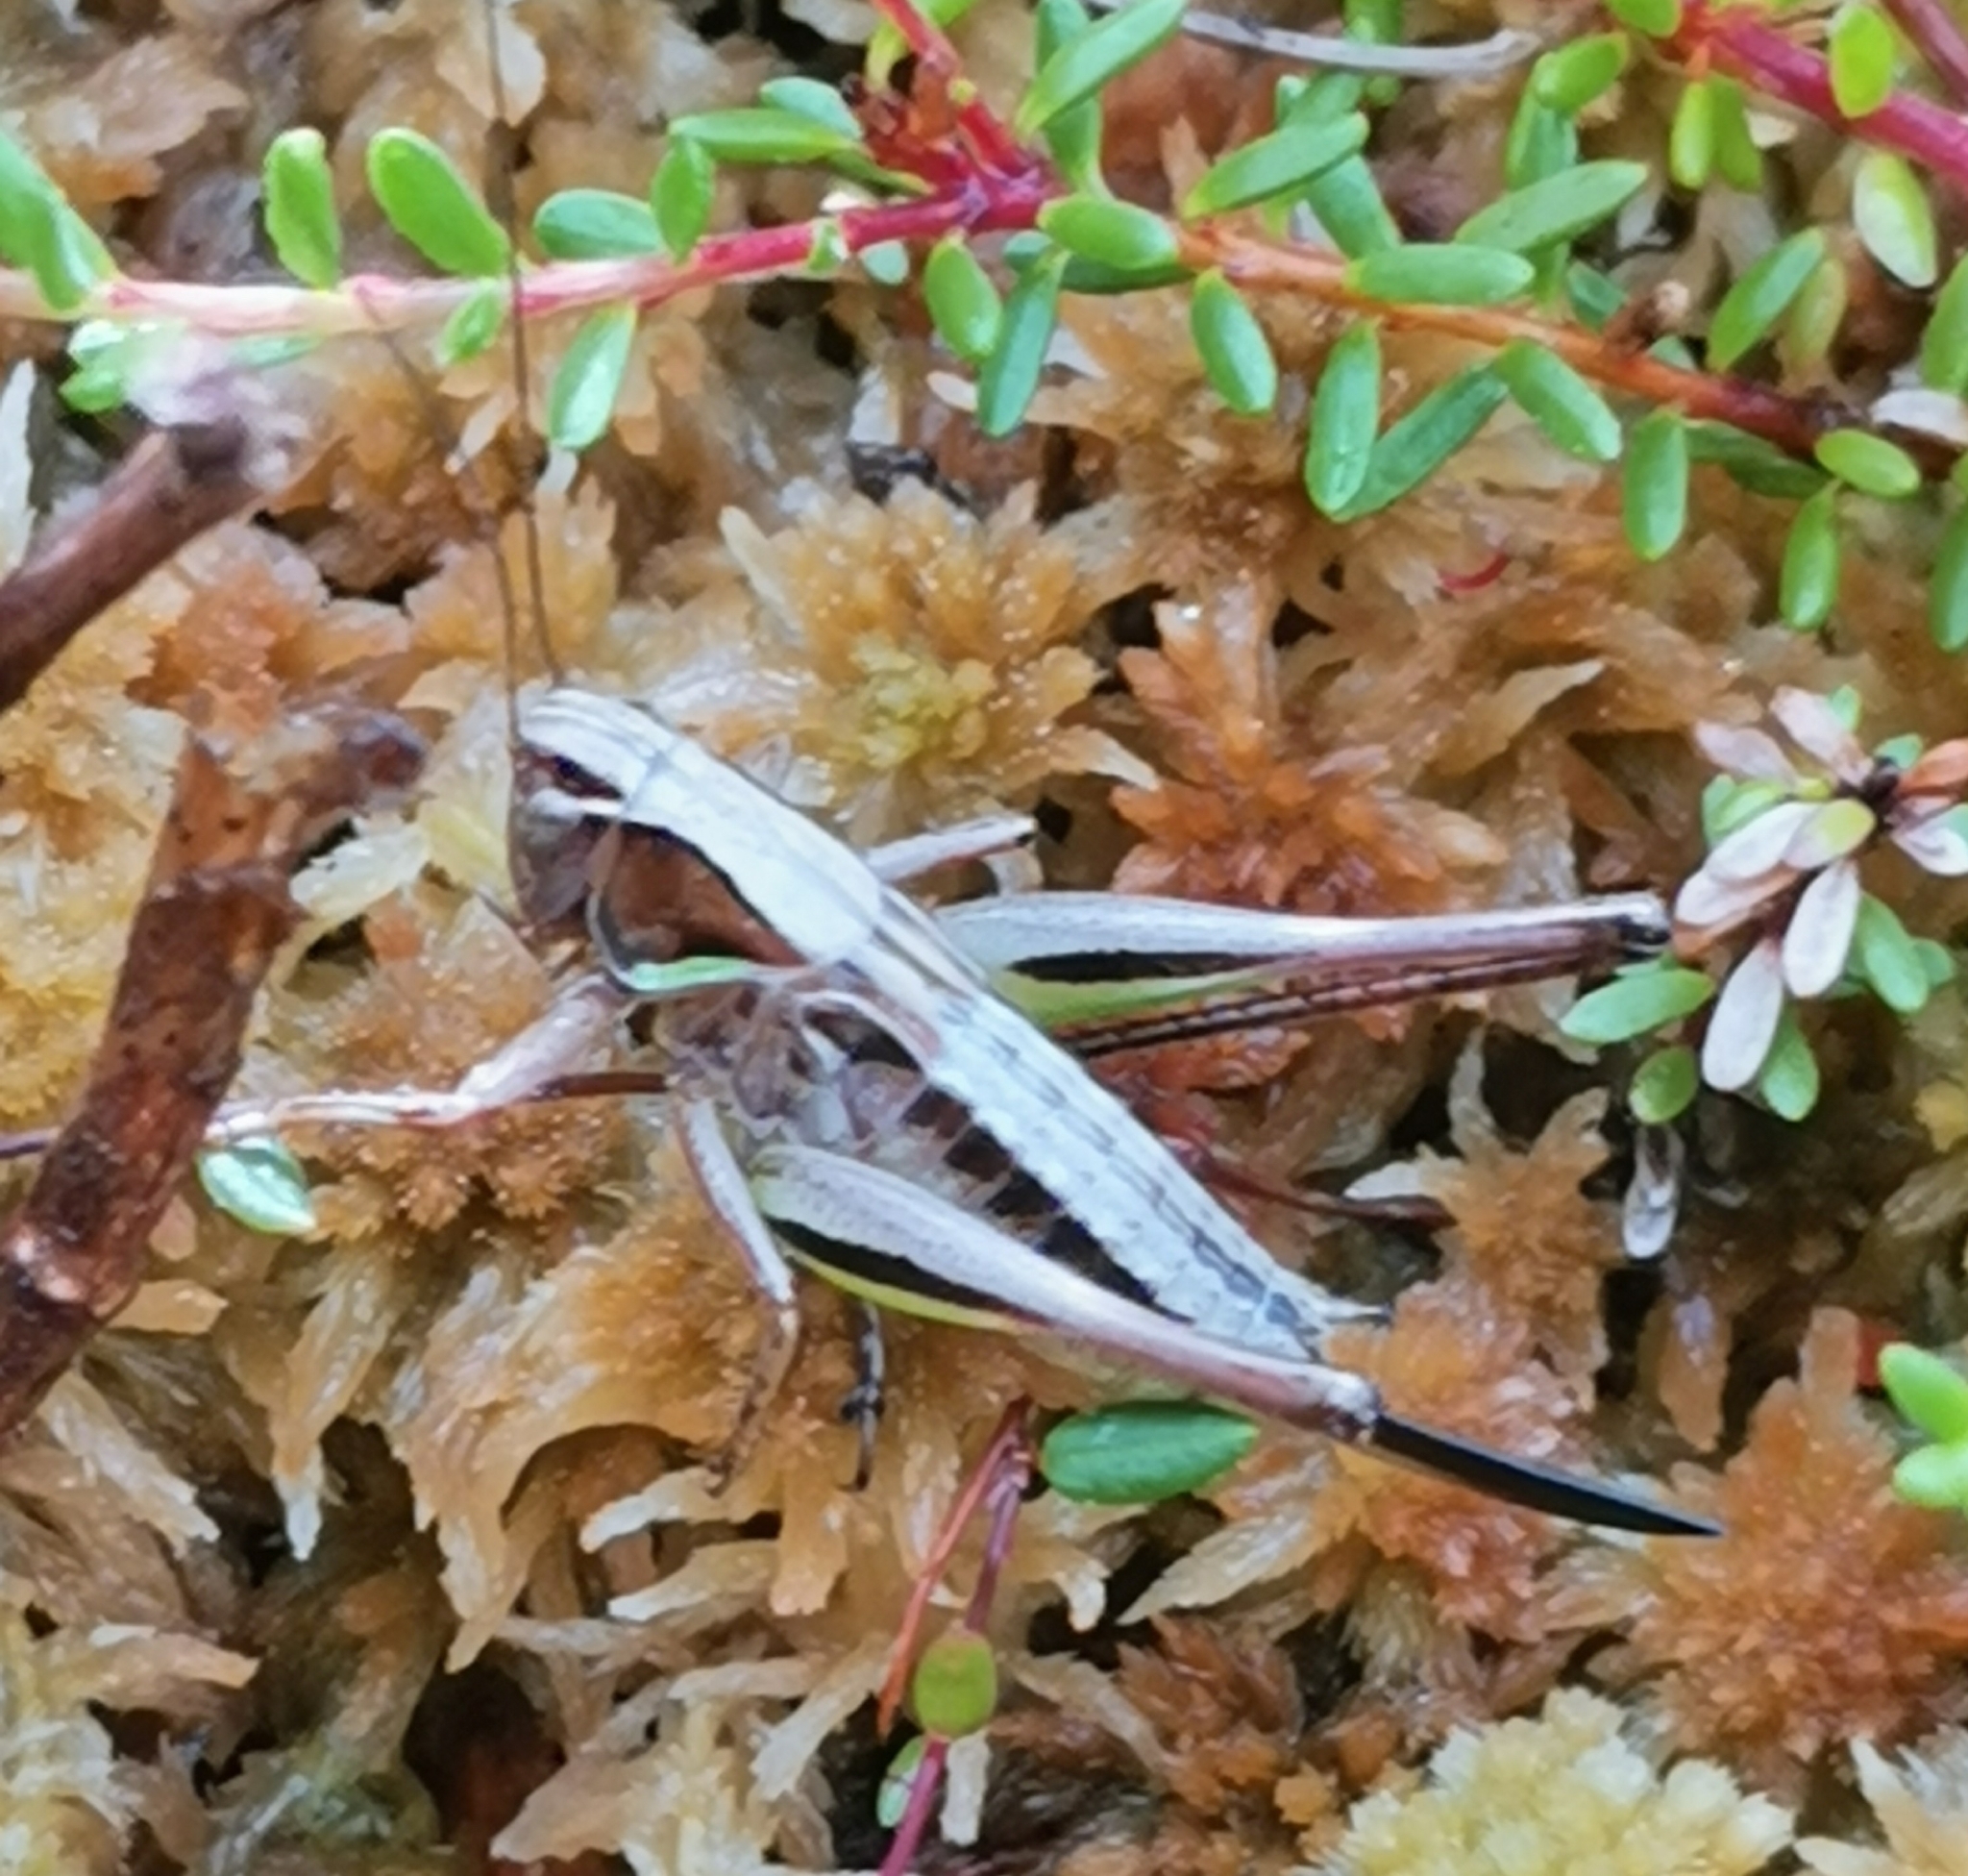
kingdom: Animalia
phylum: Arthropoda
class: Insecta
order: Orthoptera
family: Tettigoniidae
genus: Metrioptera
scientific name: Metrioptera brachyptera
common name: Bog bush-cricket
